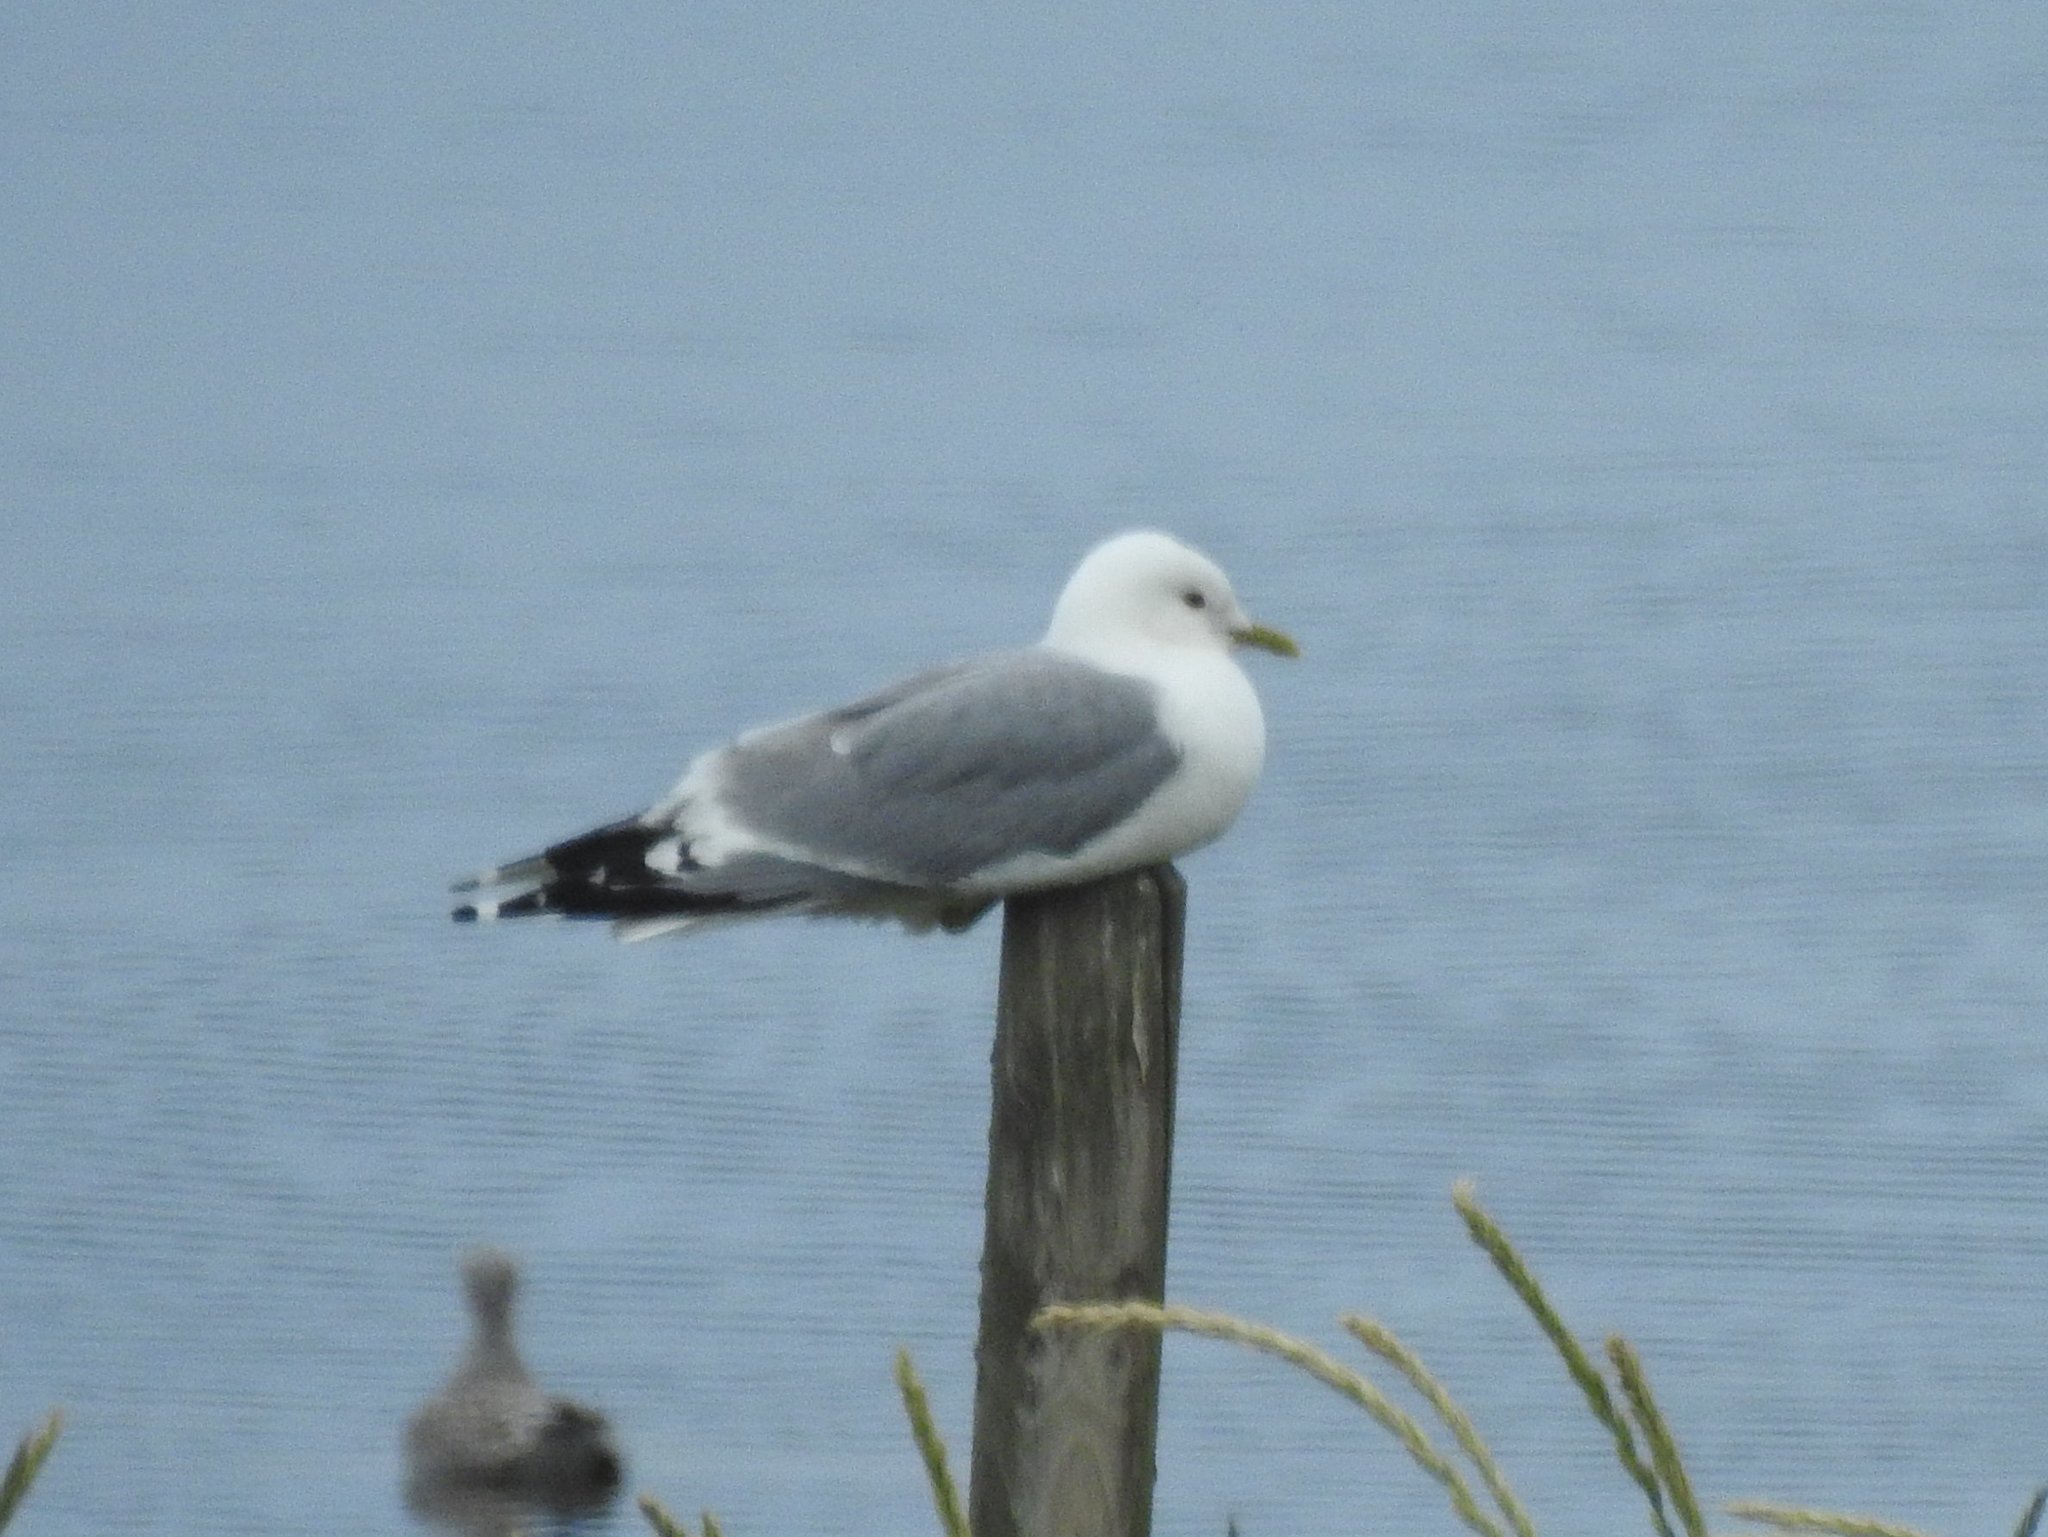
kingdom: Animalia
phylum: Chordata
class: Aves
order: Charadriiformes
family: Laridae
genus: Larus
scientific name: Larus canus
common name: Mew gull
